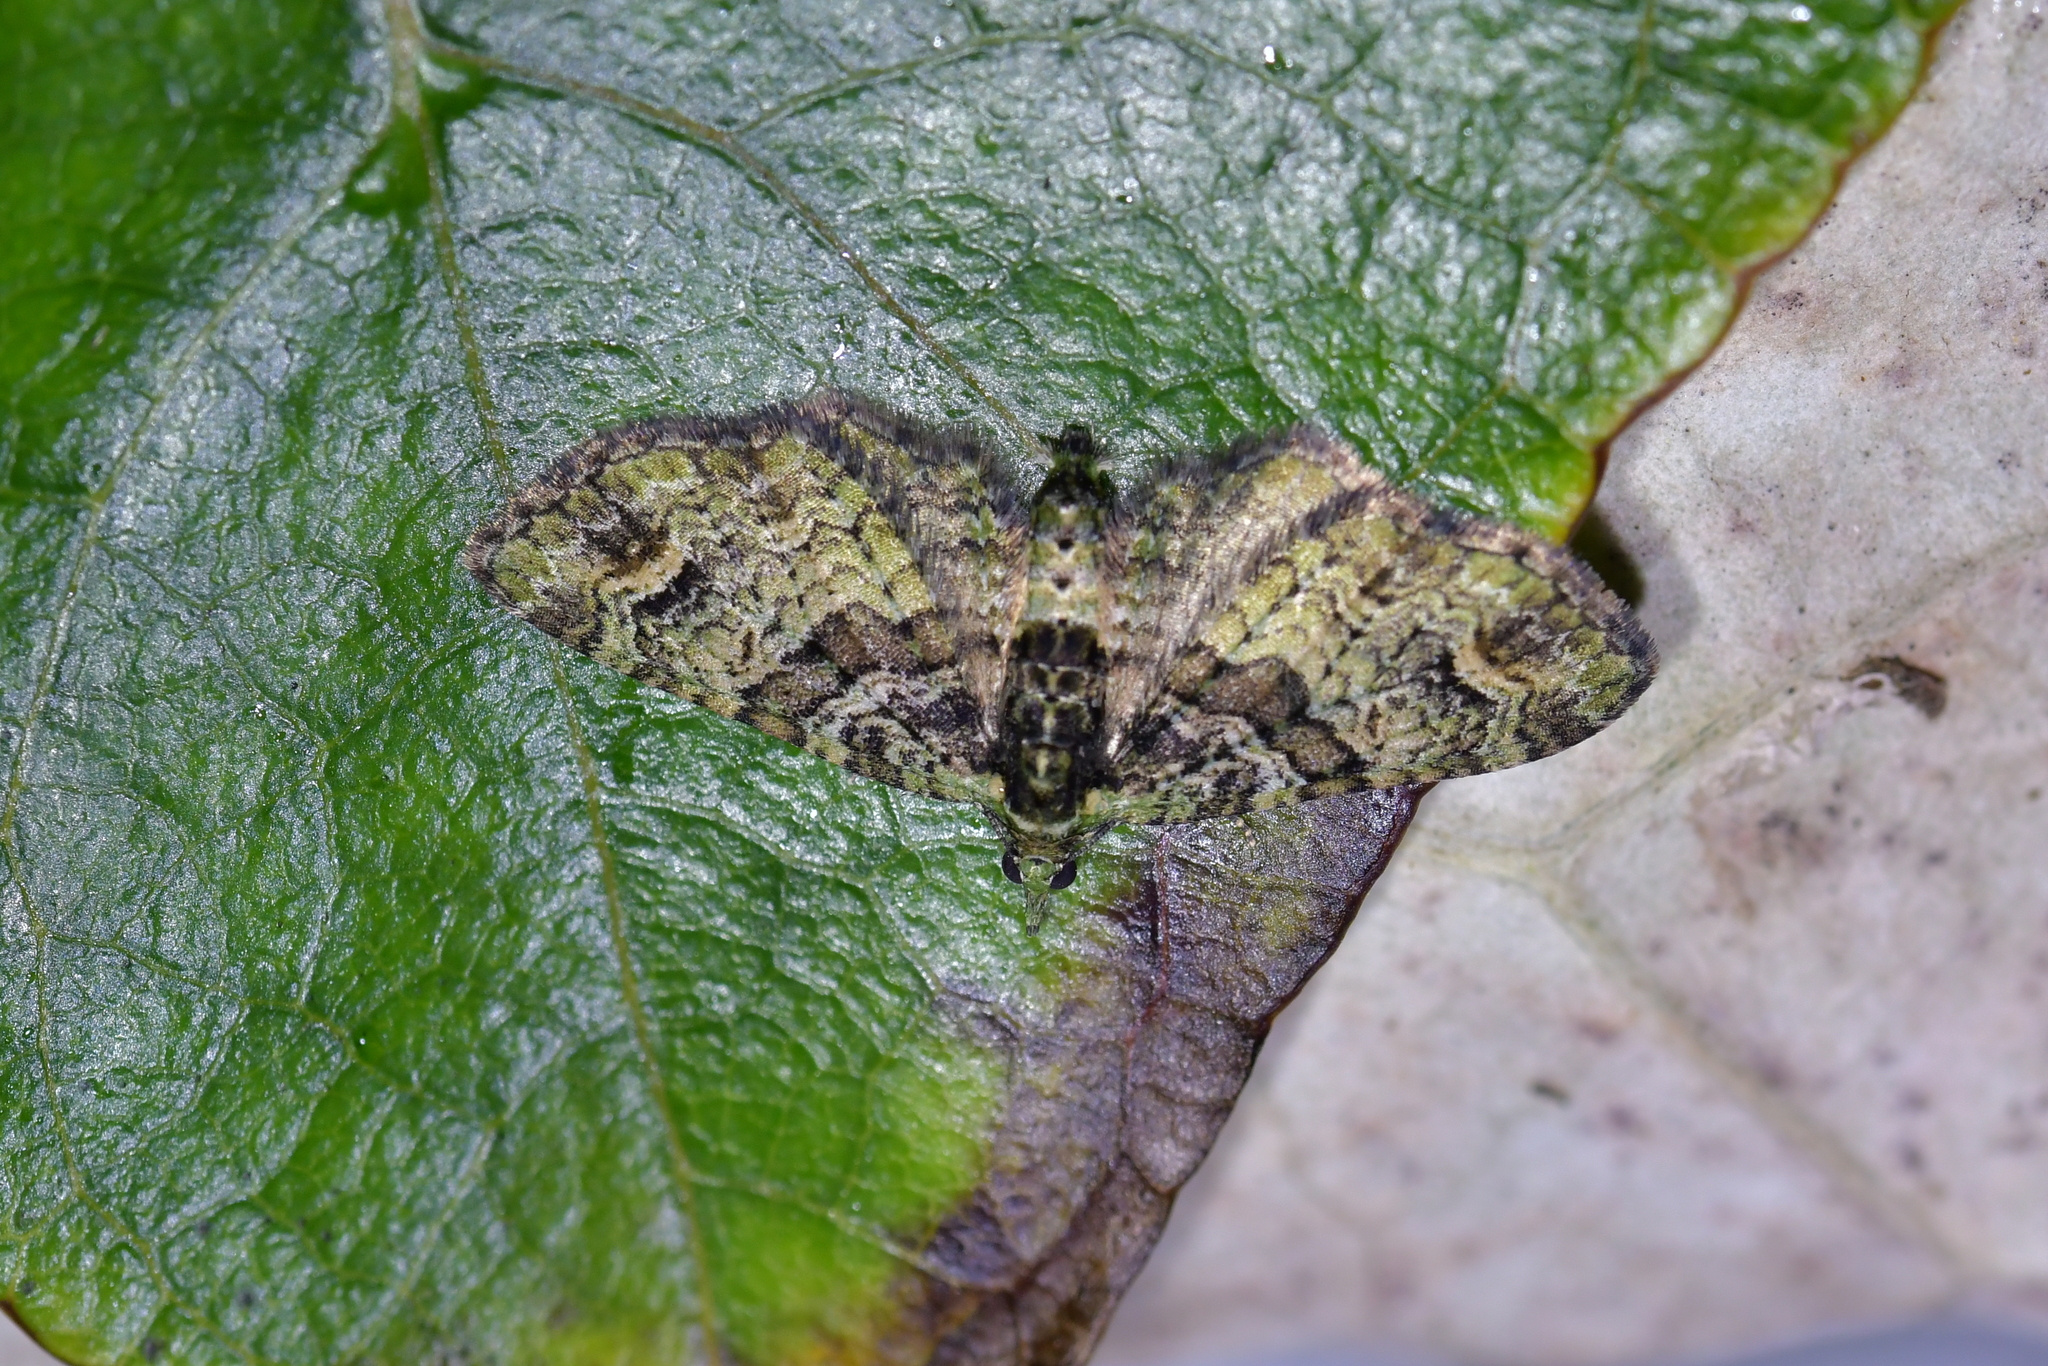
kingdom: Animalia
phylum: Arthropoda
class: Insecta
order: Lepidoptera
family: Geometridae
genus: Idaea
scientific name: Idaea mutanda
